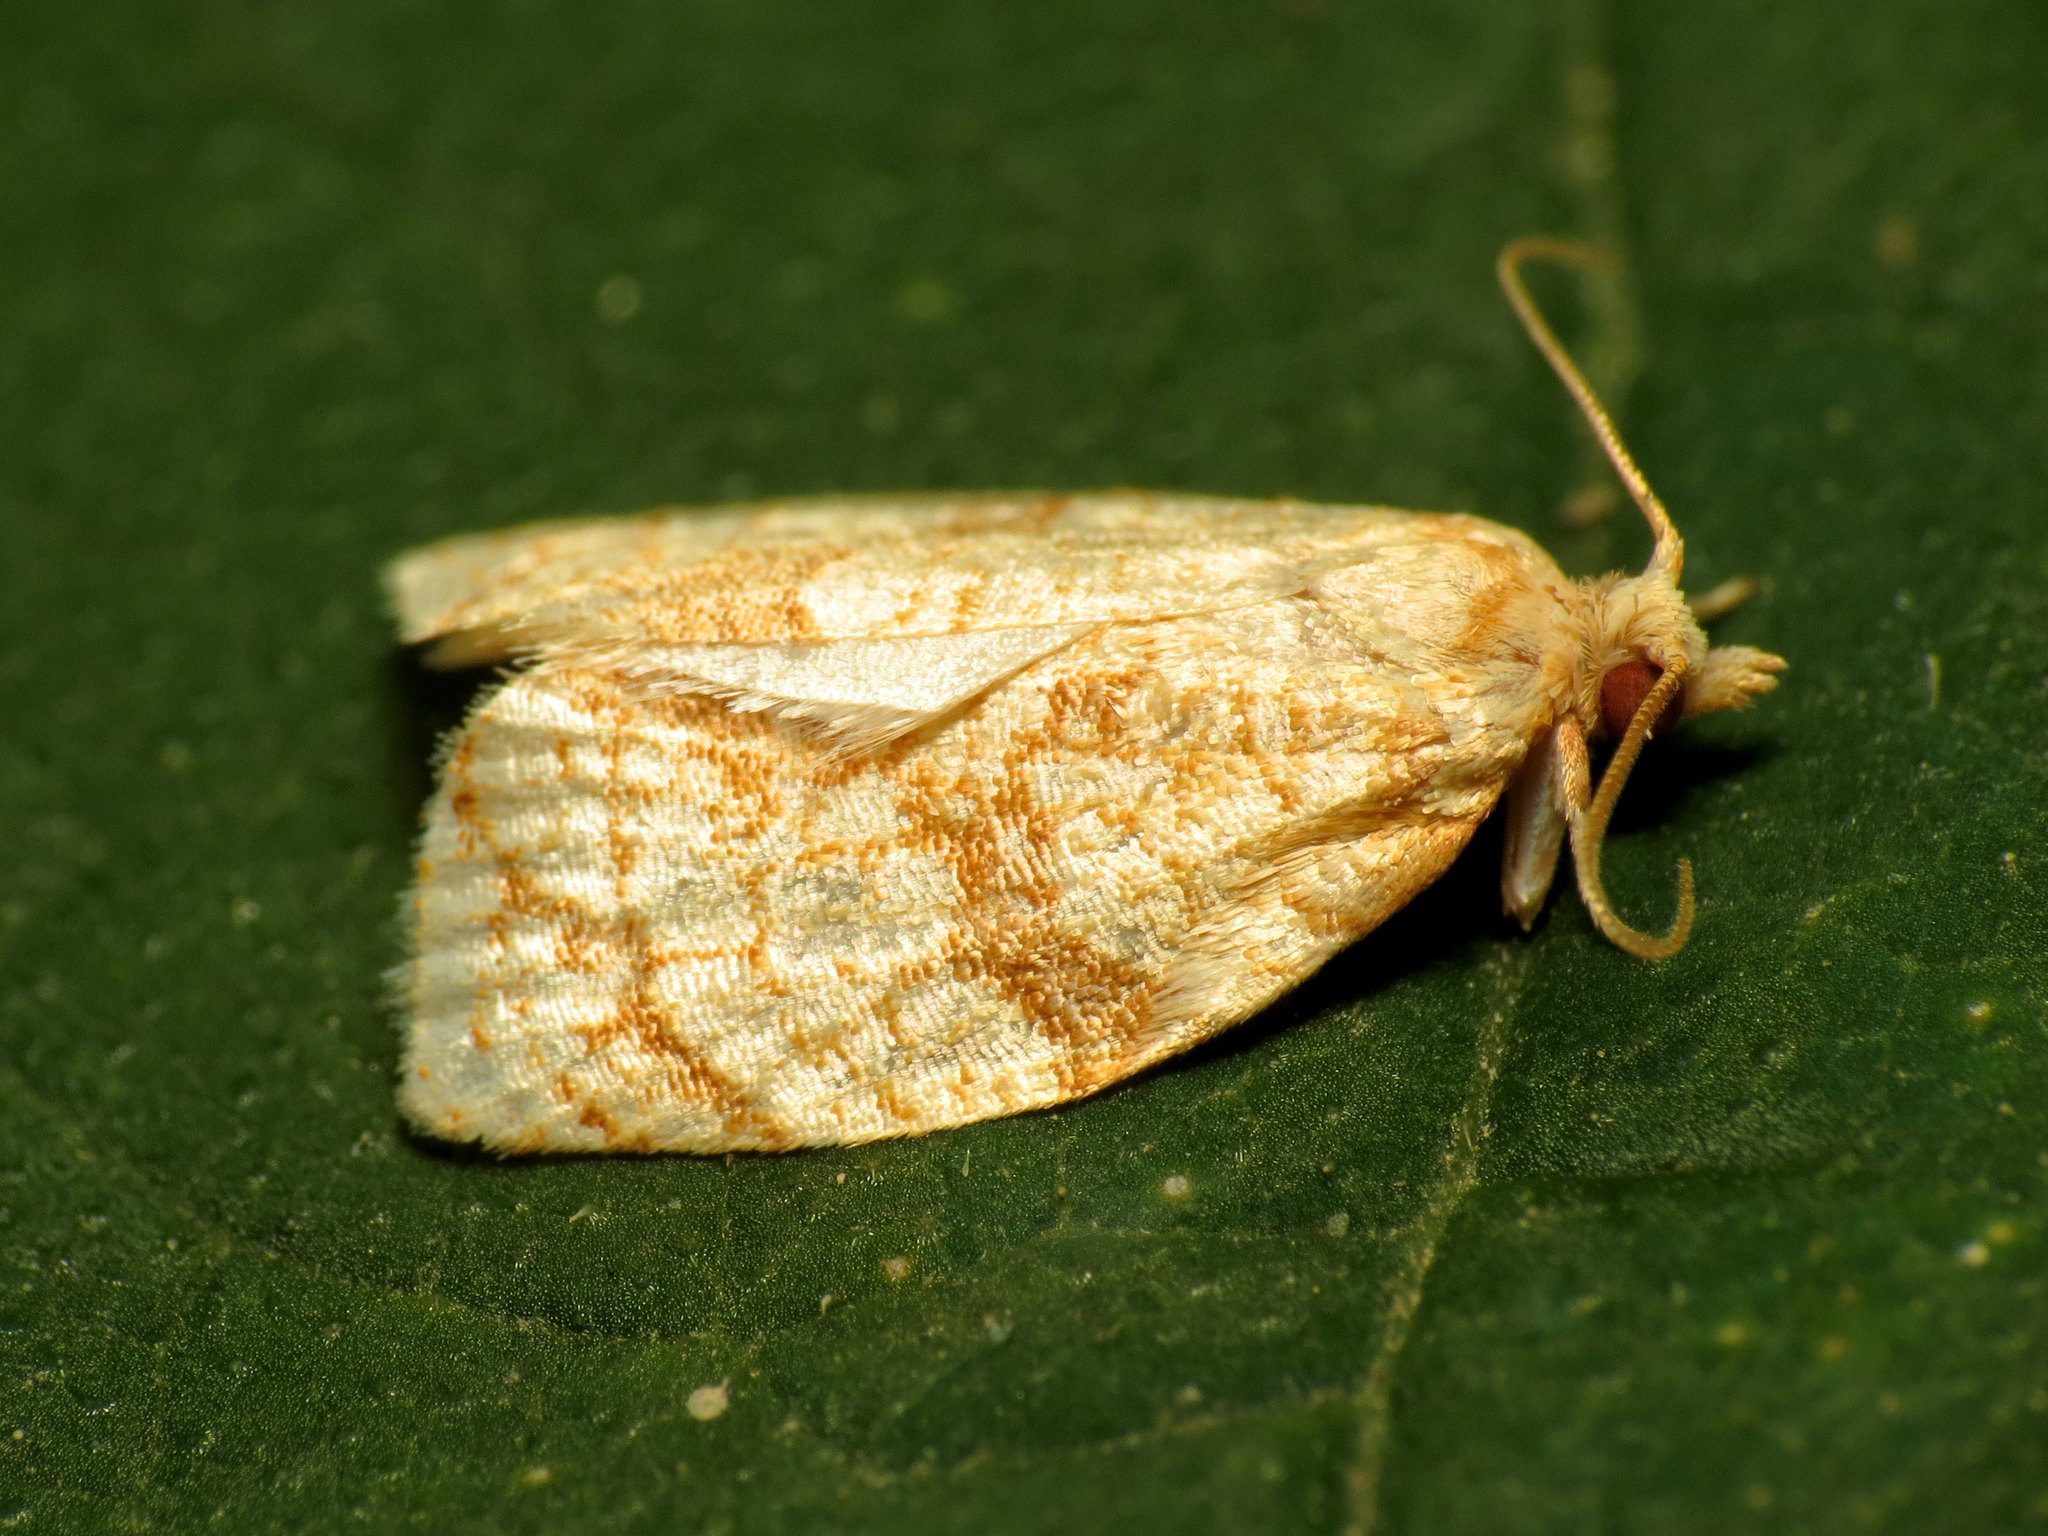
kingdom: Animalia
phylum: Arthropoda
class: Insecta
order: Lepidoptera
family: Tortricidae
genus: Adoxophyes
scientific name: Adoxophyes negundana
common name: Shimmering gold adoxophyes moth
